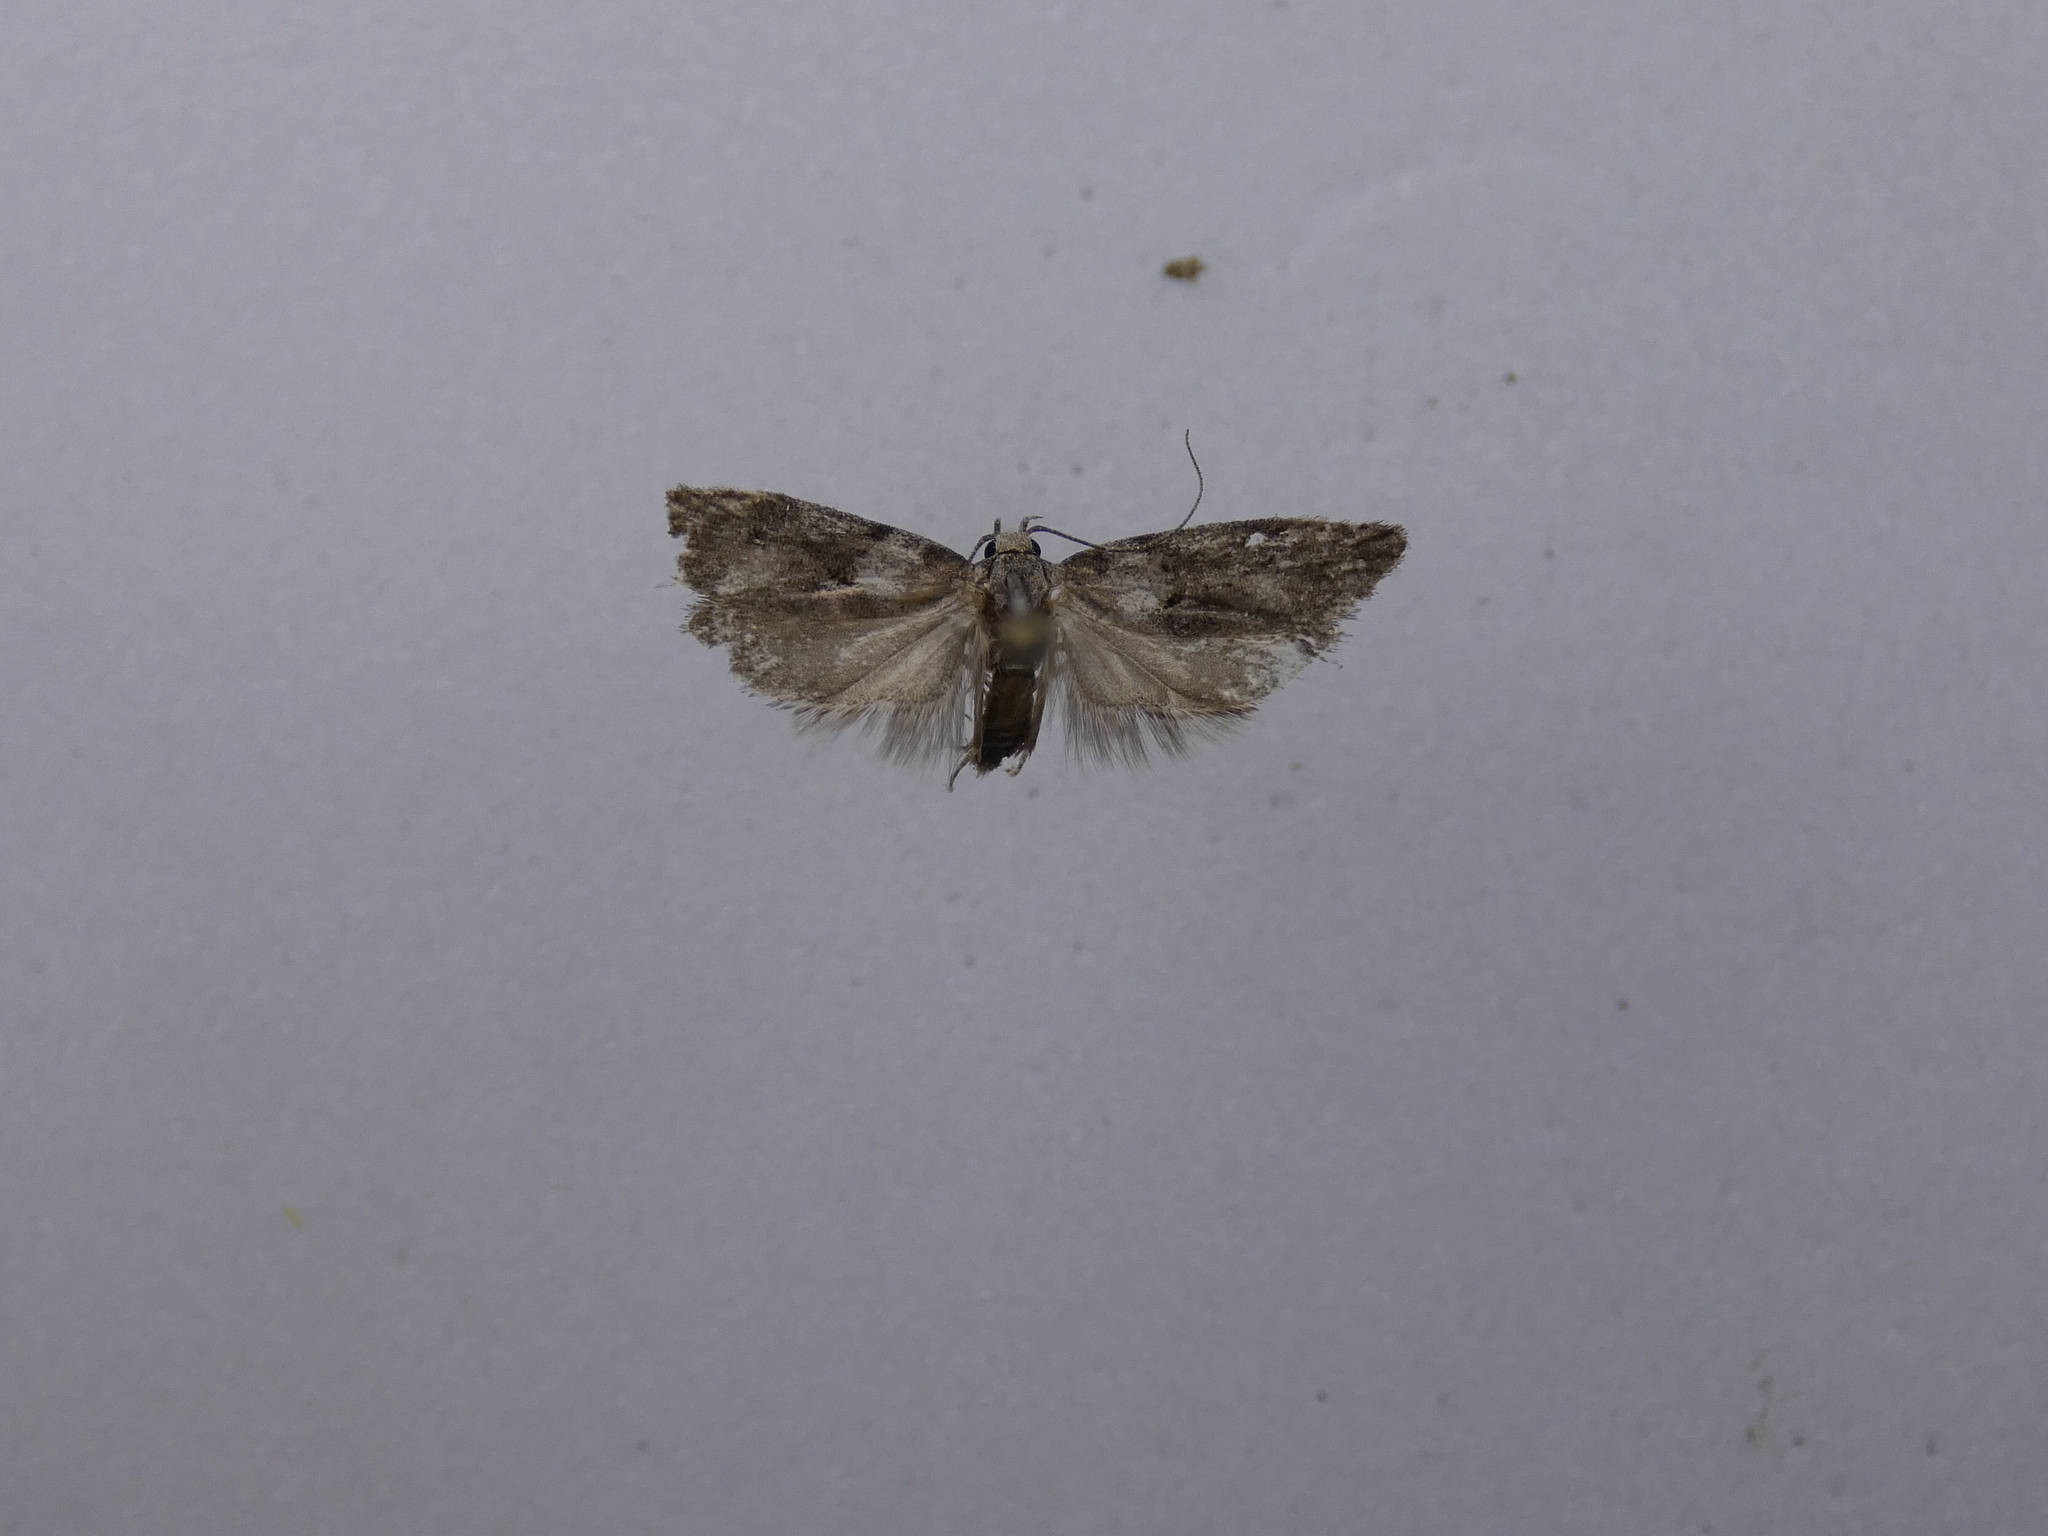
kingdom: Animalia
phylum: Arthropoda
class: Insecta
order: Lepidoptera
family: Oecophoridae
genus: Izatha
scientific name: Izatha convulsella
